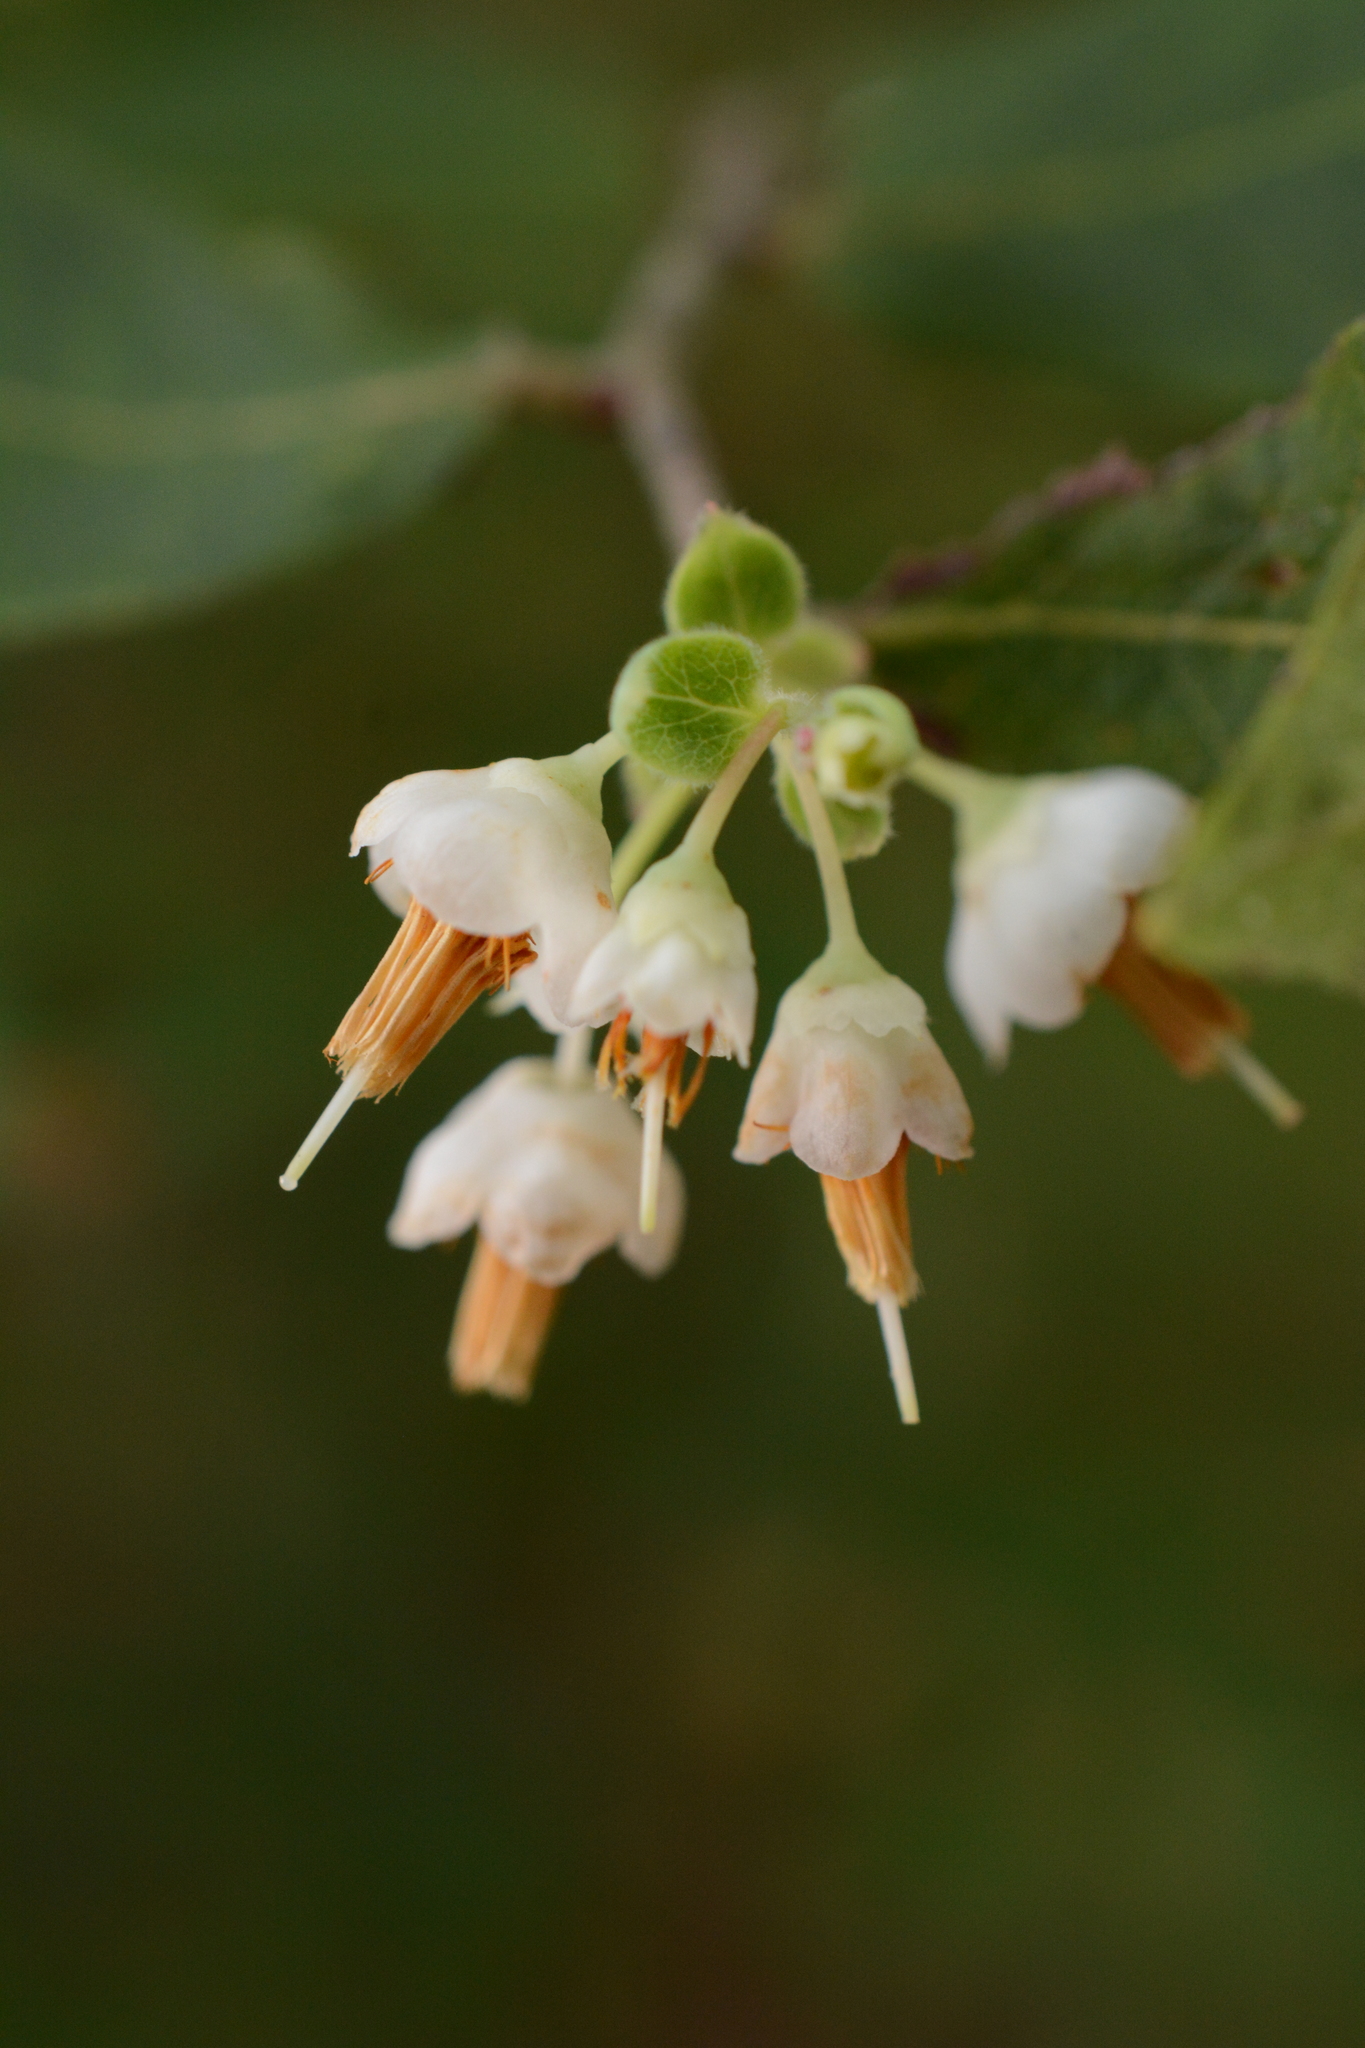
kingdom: Plantae
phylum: Tracheophyta
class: Magnoliopsida
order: Ericales
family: Ericaceae
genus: Vaccinium
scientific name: Vaccinium stamineum
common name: Deerberry
